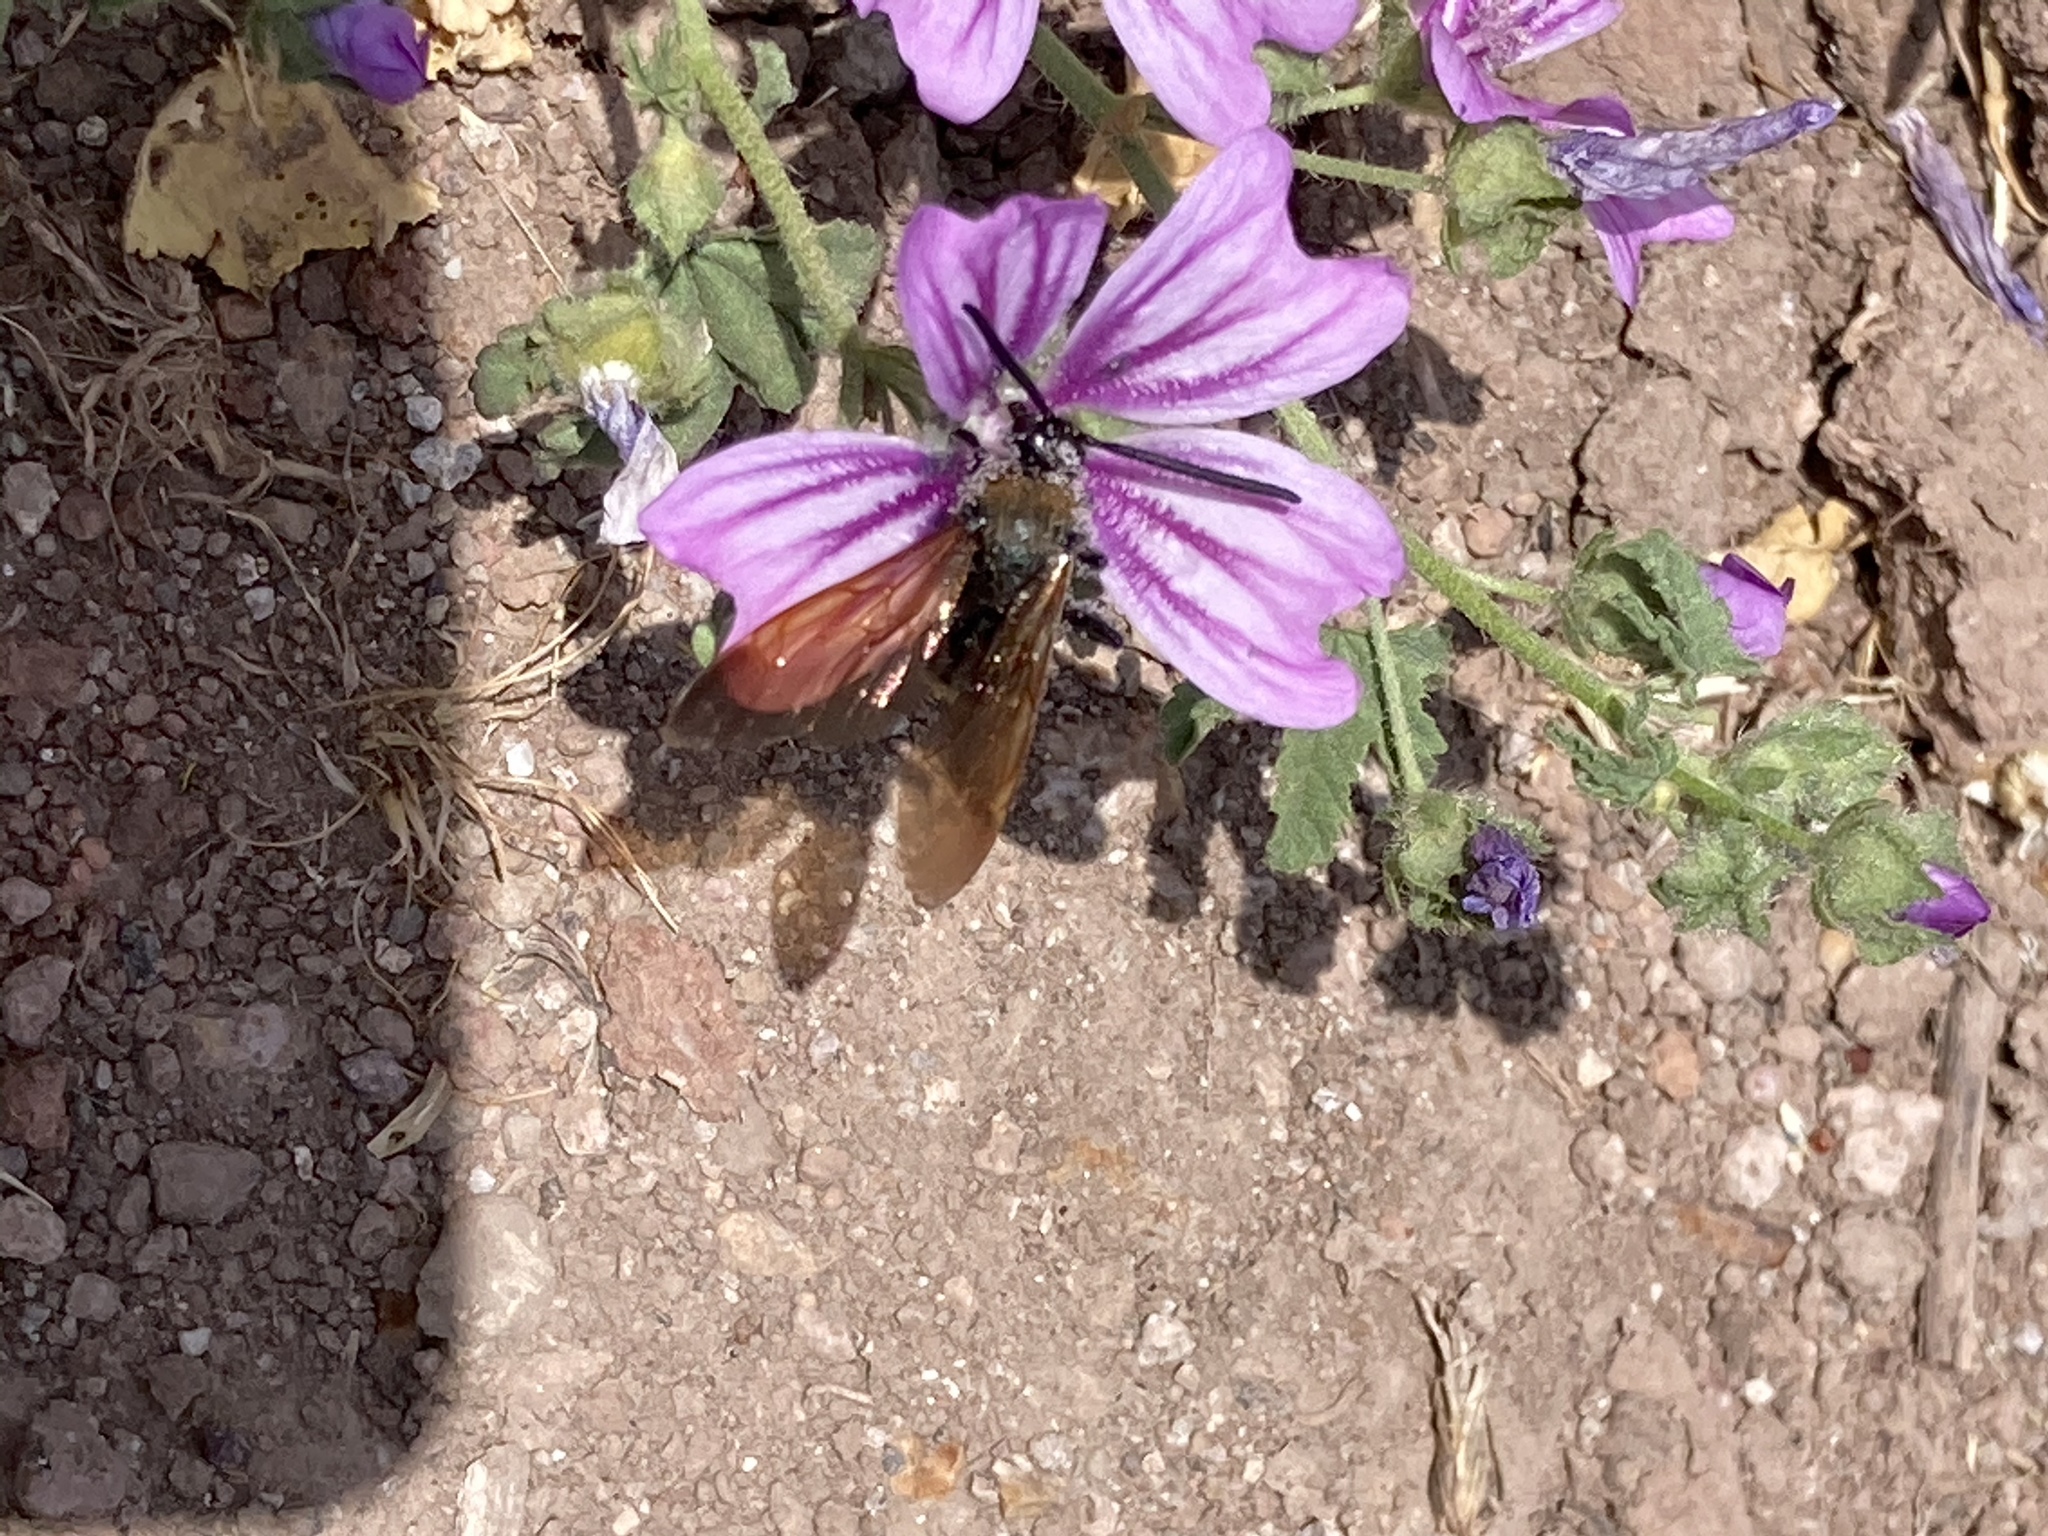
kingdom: Animalia
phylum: Arthropoda
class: Insecta
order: Hymenoptera
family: Scoliidae
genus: Megascolia
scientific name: Megascolia maculata
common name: Mammoth wasp
